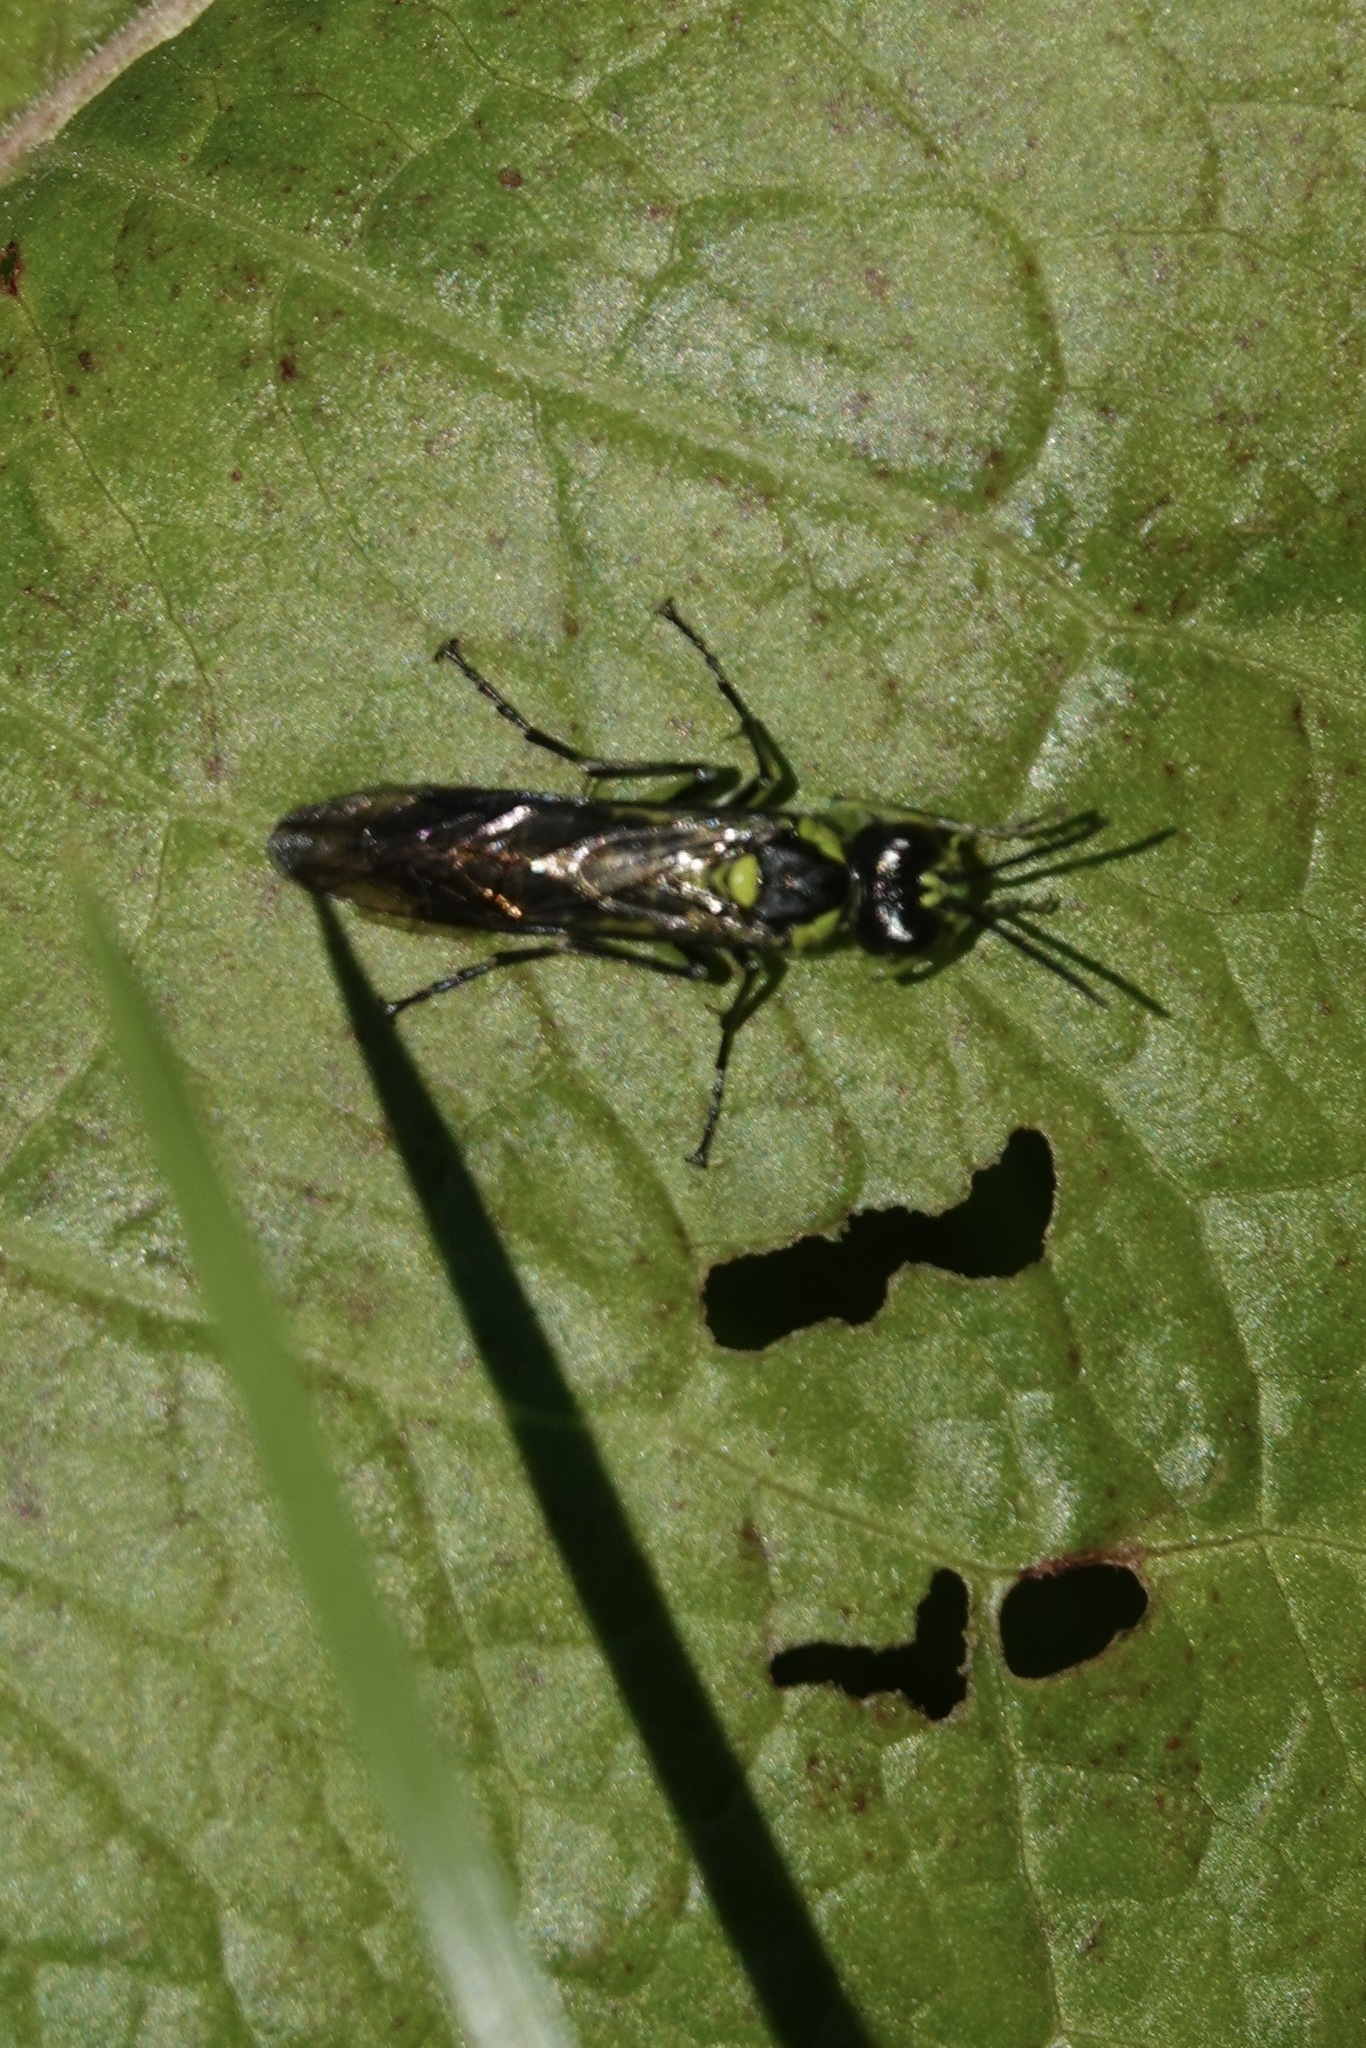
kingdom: Animalia
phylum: Arthropoda
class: Insecta
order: Hymenoptera
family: Tenthredinidae
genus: Tenthredo
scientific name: Tenthredo mesomela
